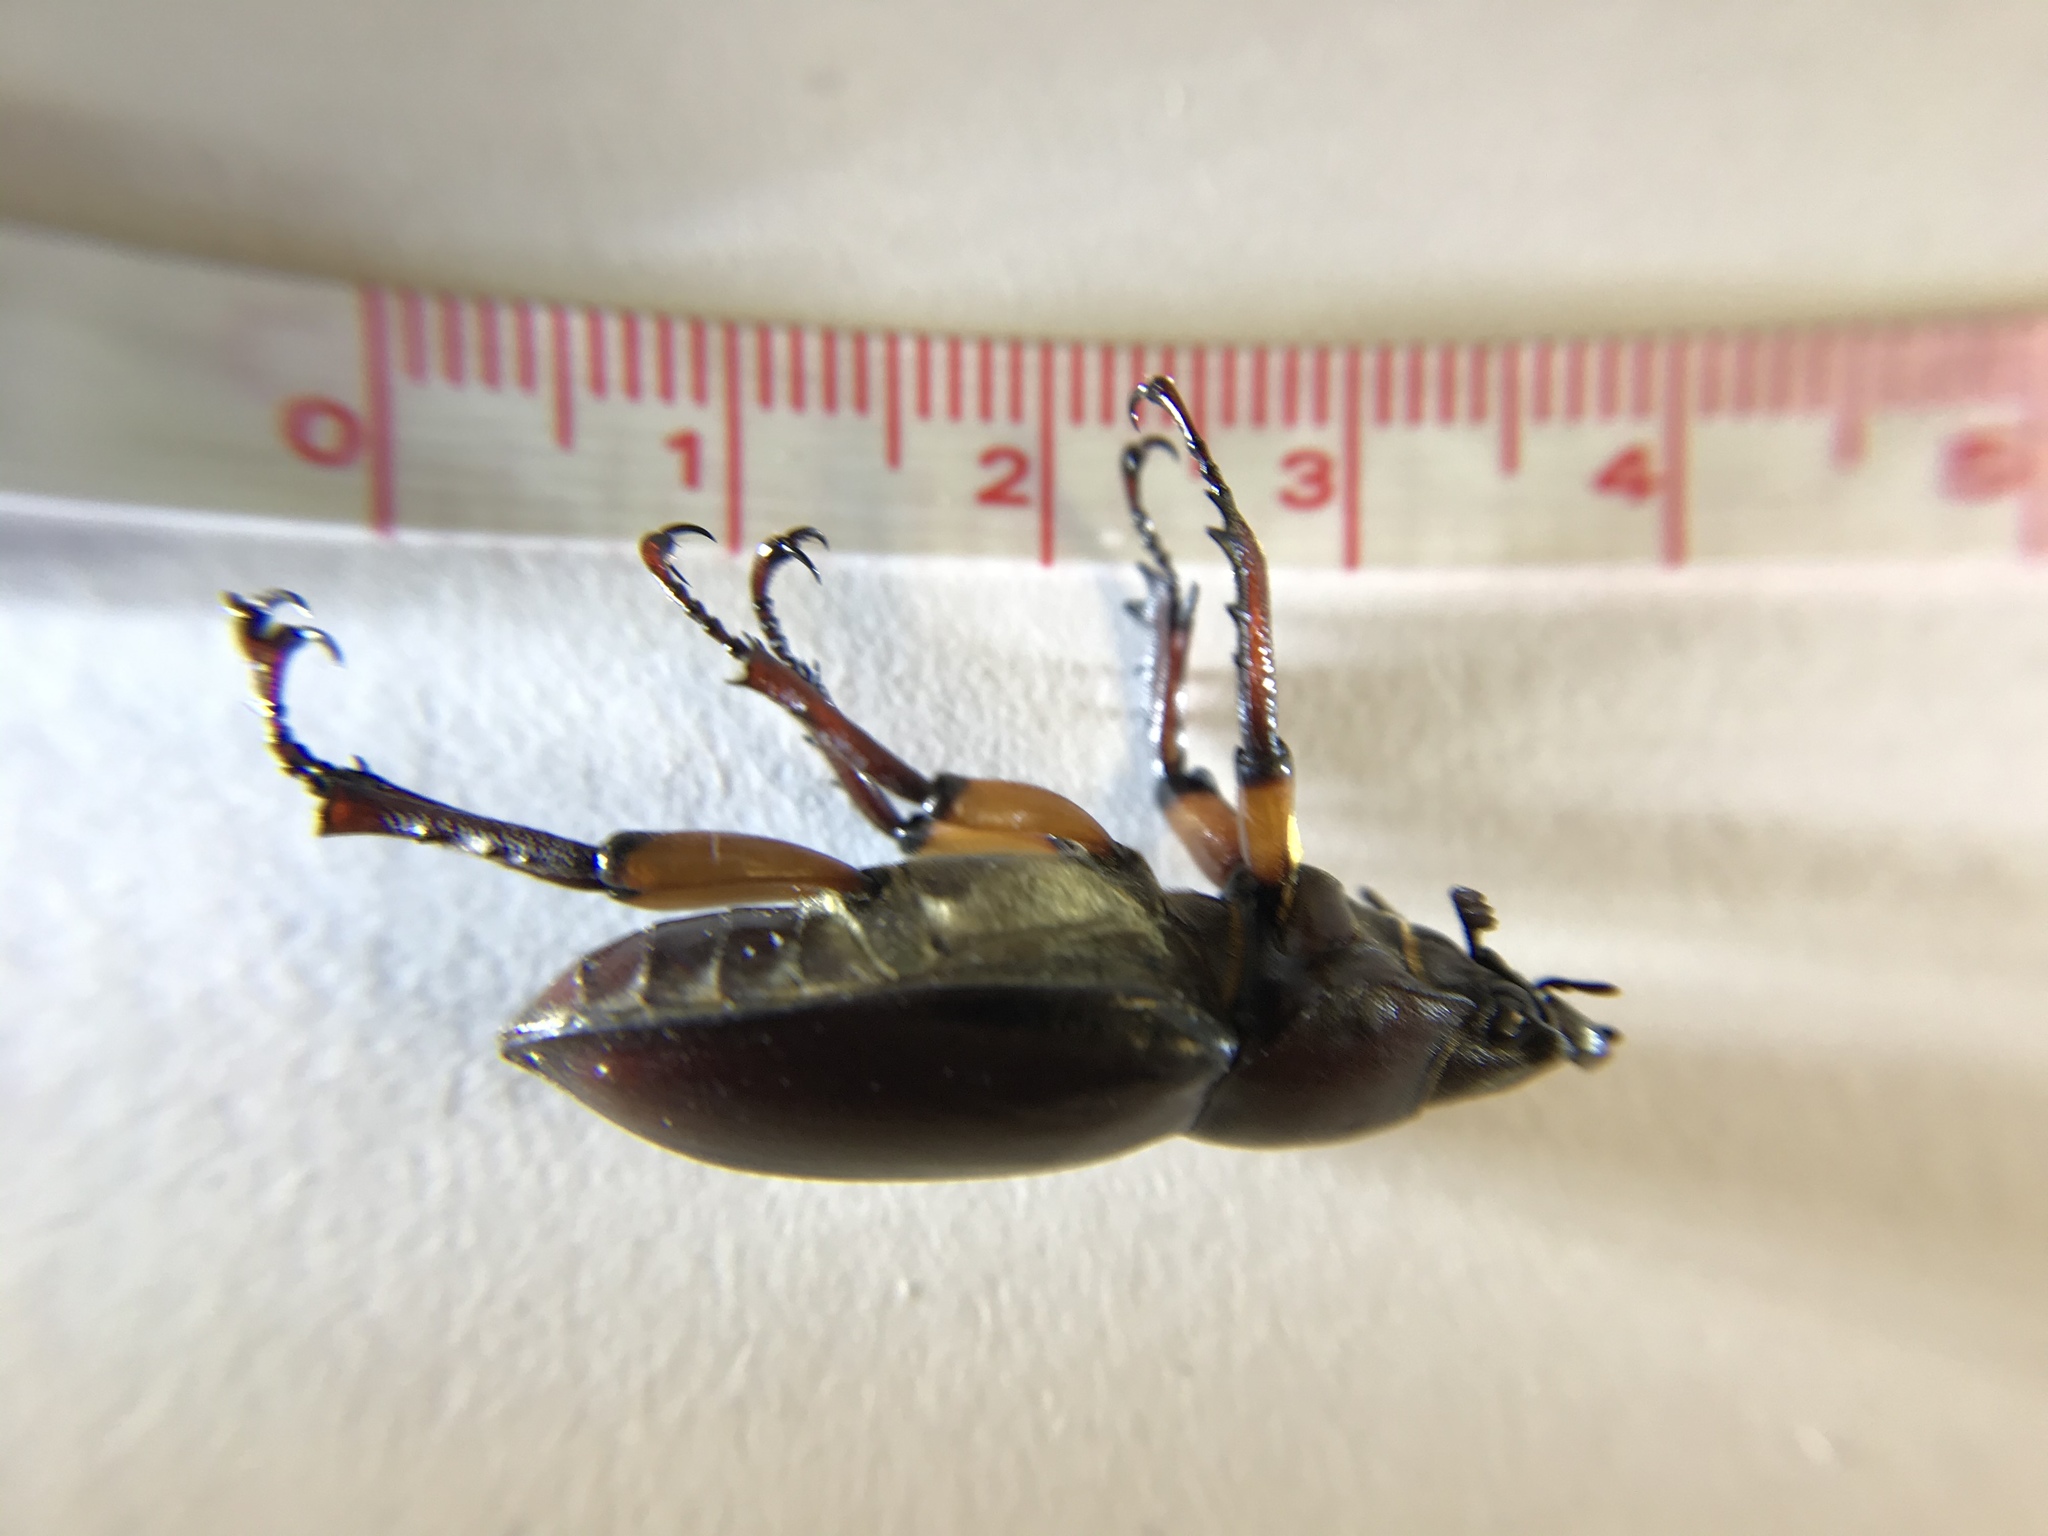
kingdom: Animalia
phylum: Arthropoda
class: Insecta
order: Coleoptera
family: Lucanidae
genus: Lucanus
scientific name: Lucanus capreolus
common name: Stag beetle
